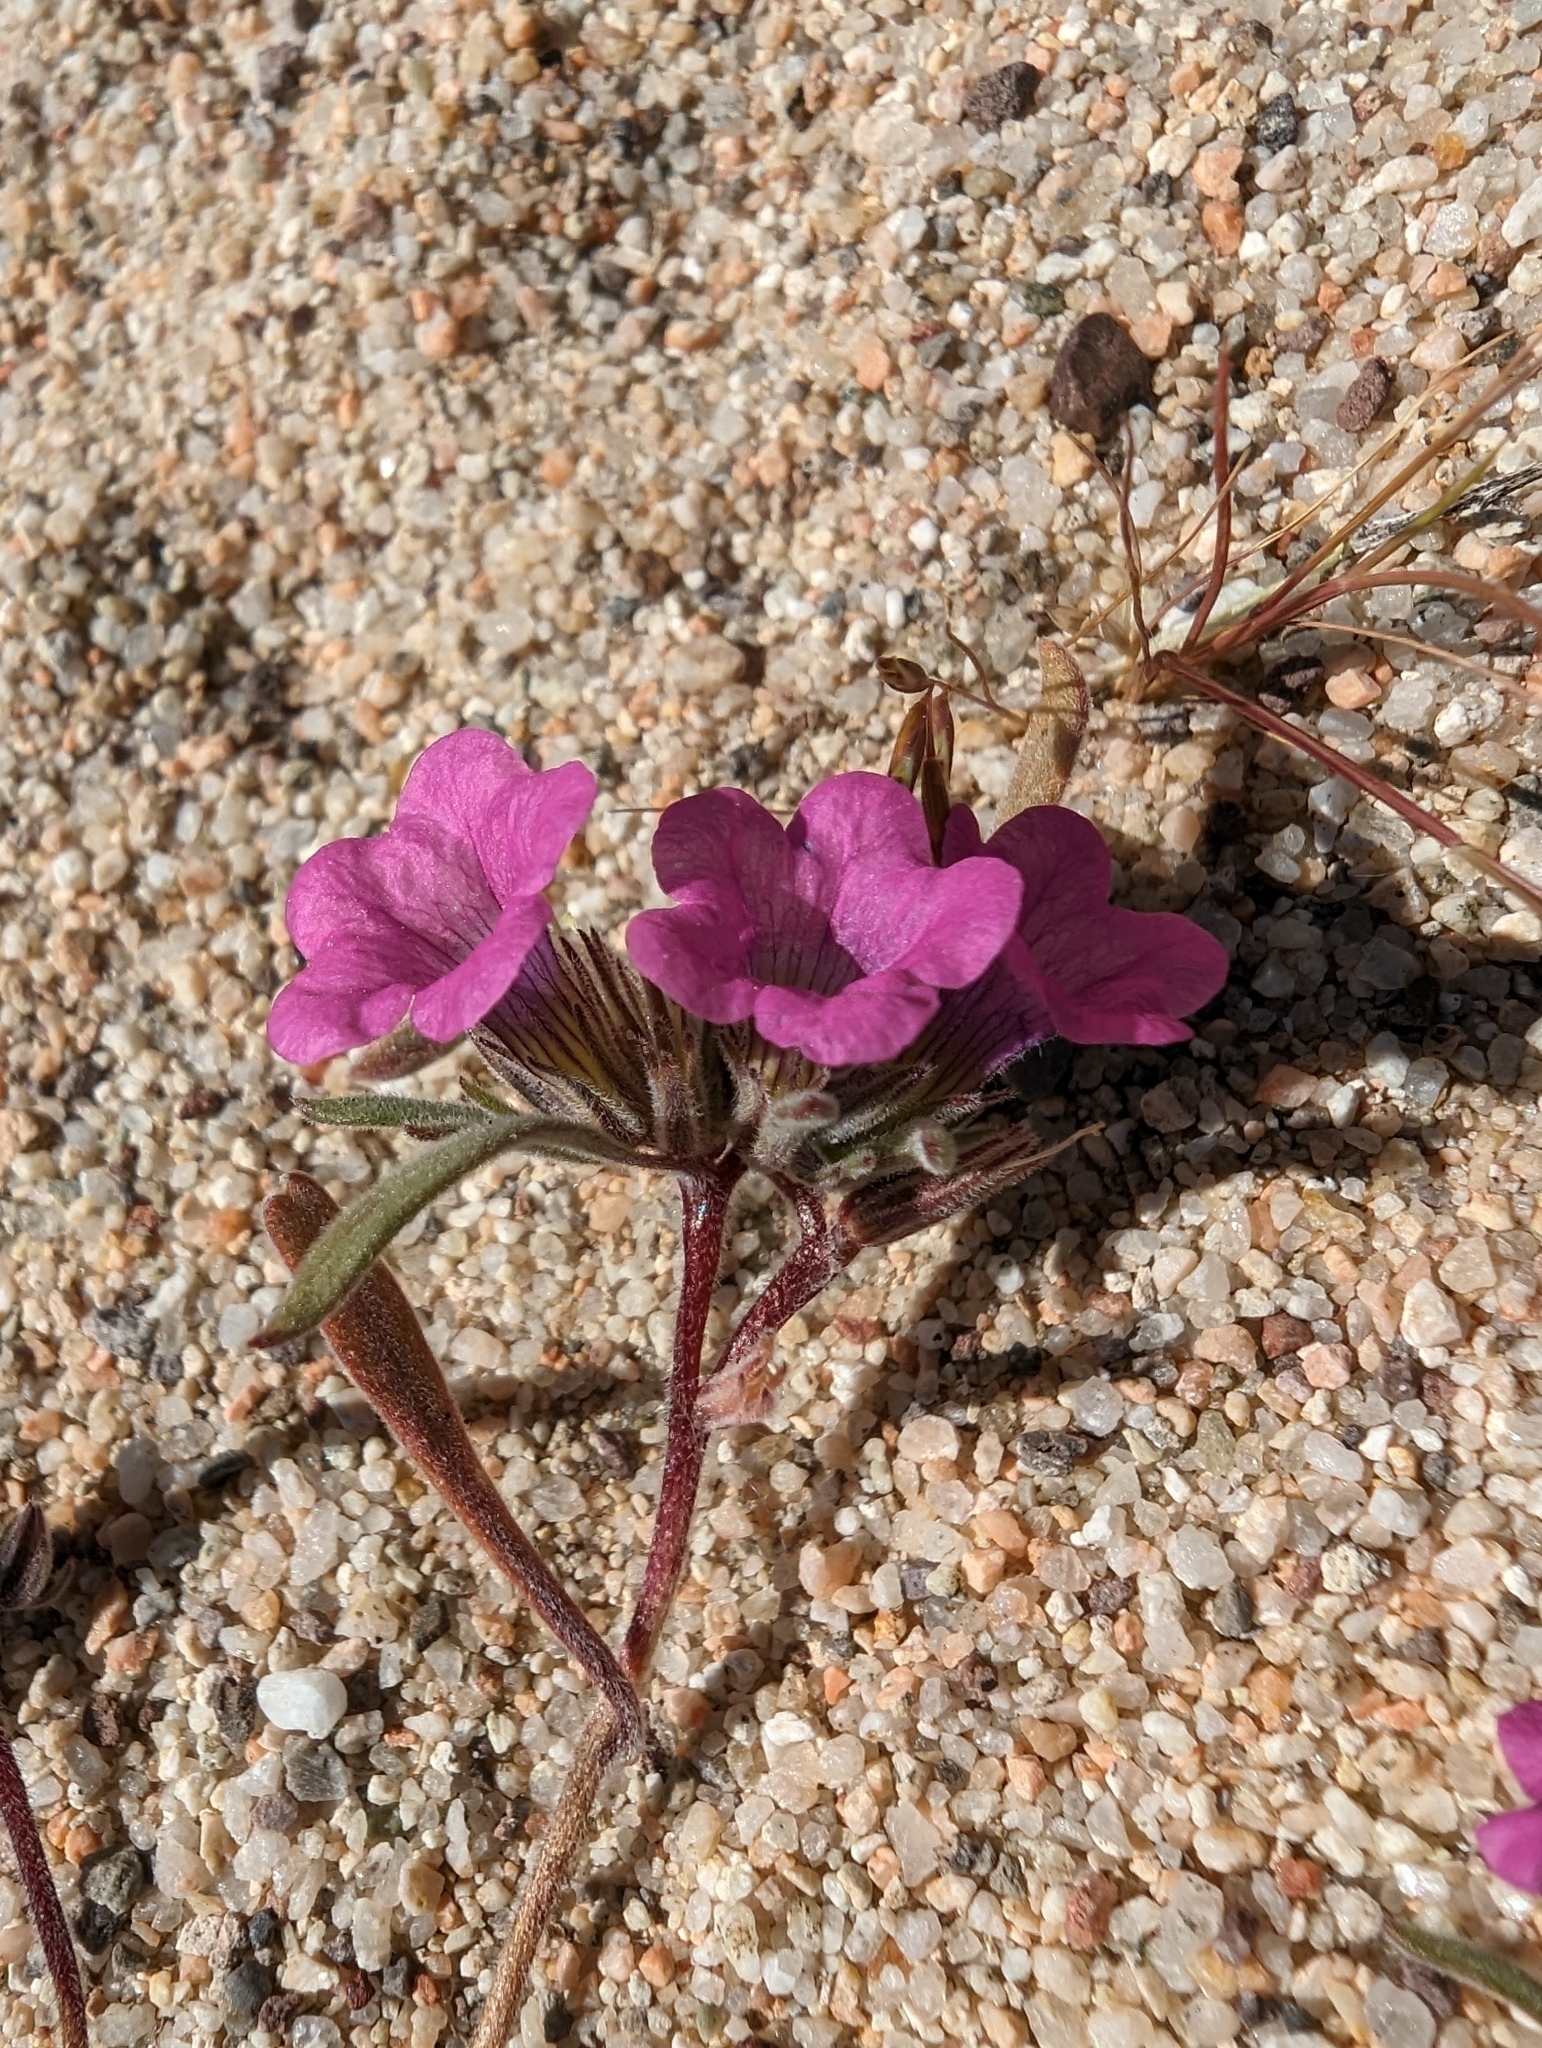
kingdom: Plantae
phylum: Tracheophyta
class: Magnoliopsida
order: Boraginales
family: Namaceae
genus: Nama
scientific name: Nama demissa
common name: Leafy nama
